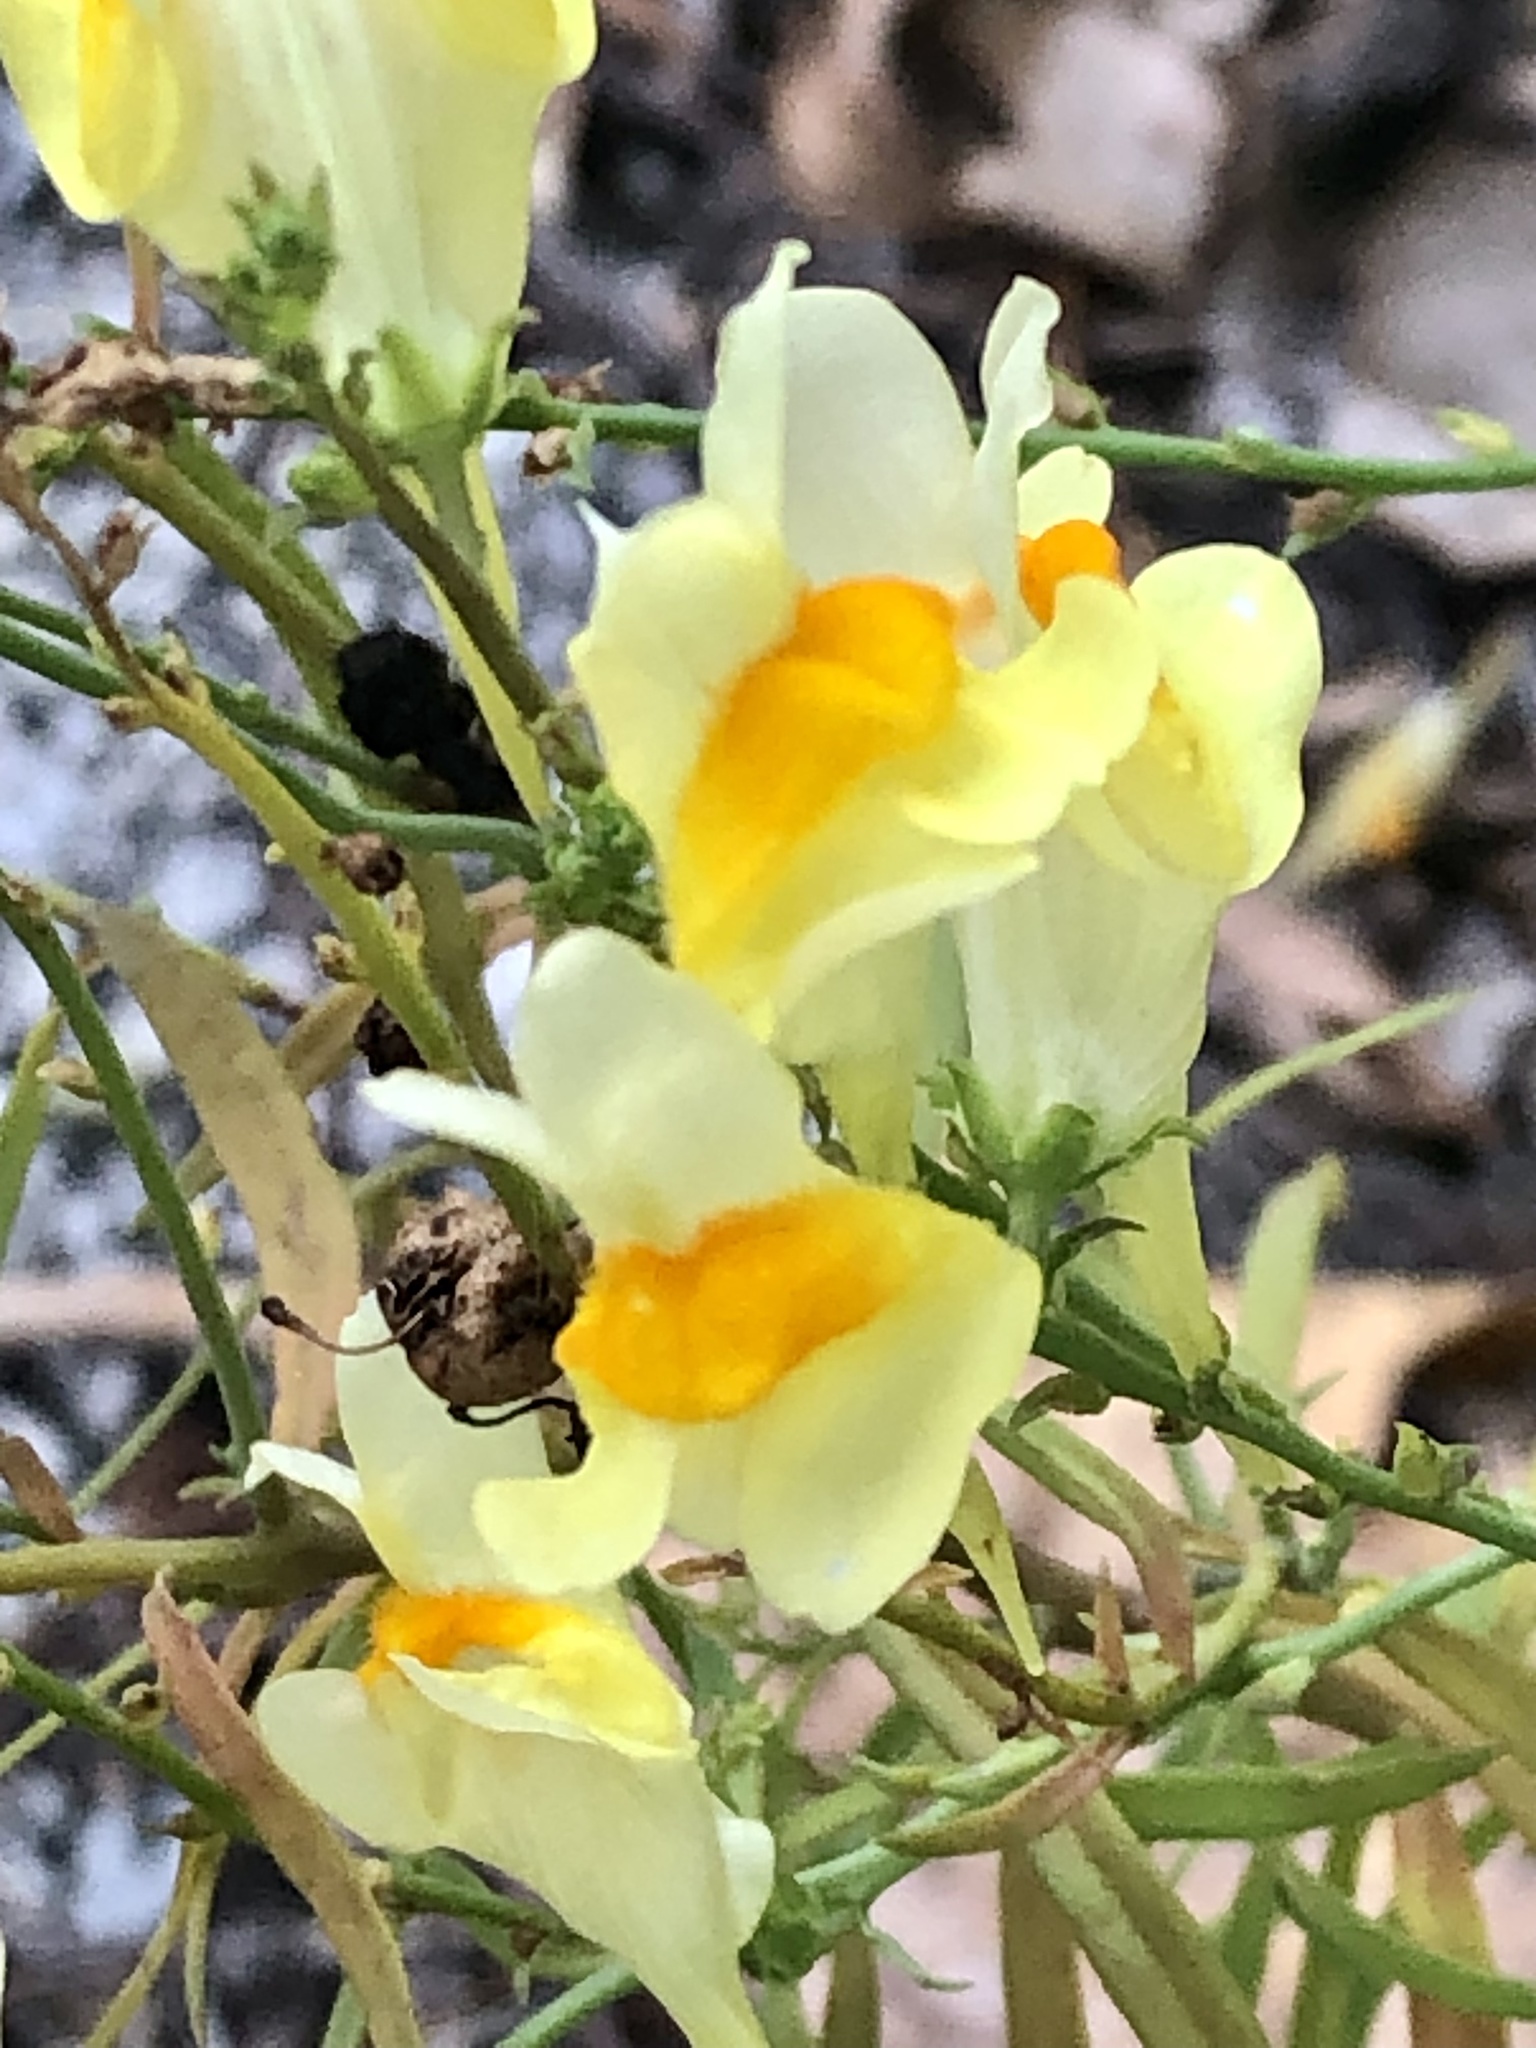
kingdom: Plantae
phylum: Tracheophyta
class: Magnoliopsida
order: Lamiales
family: Plantaginaceae
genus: Linaria
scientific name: Linaria vulgaris
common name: Butter and eggs
